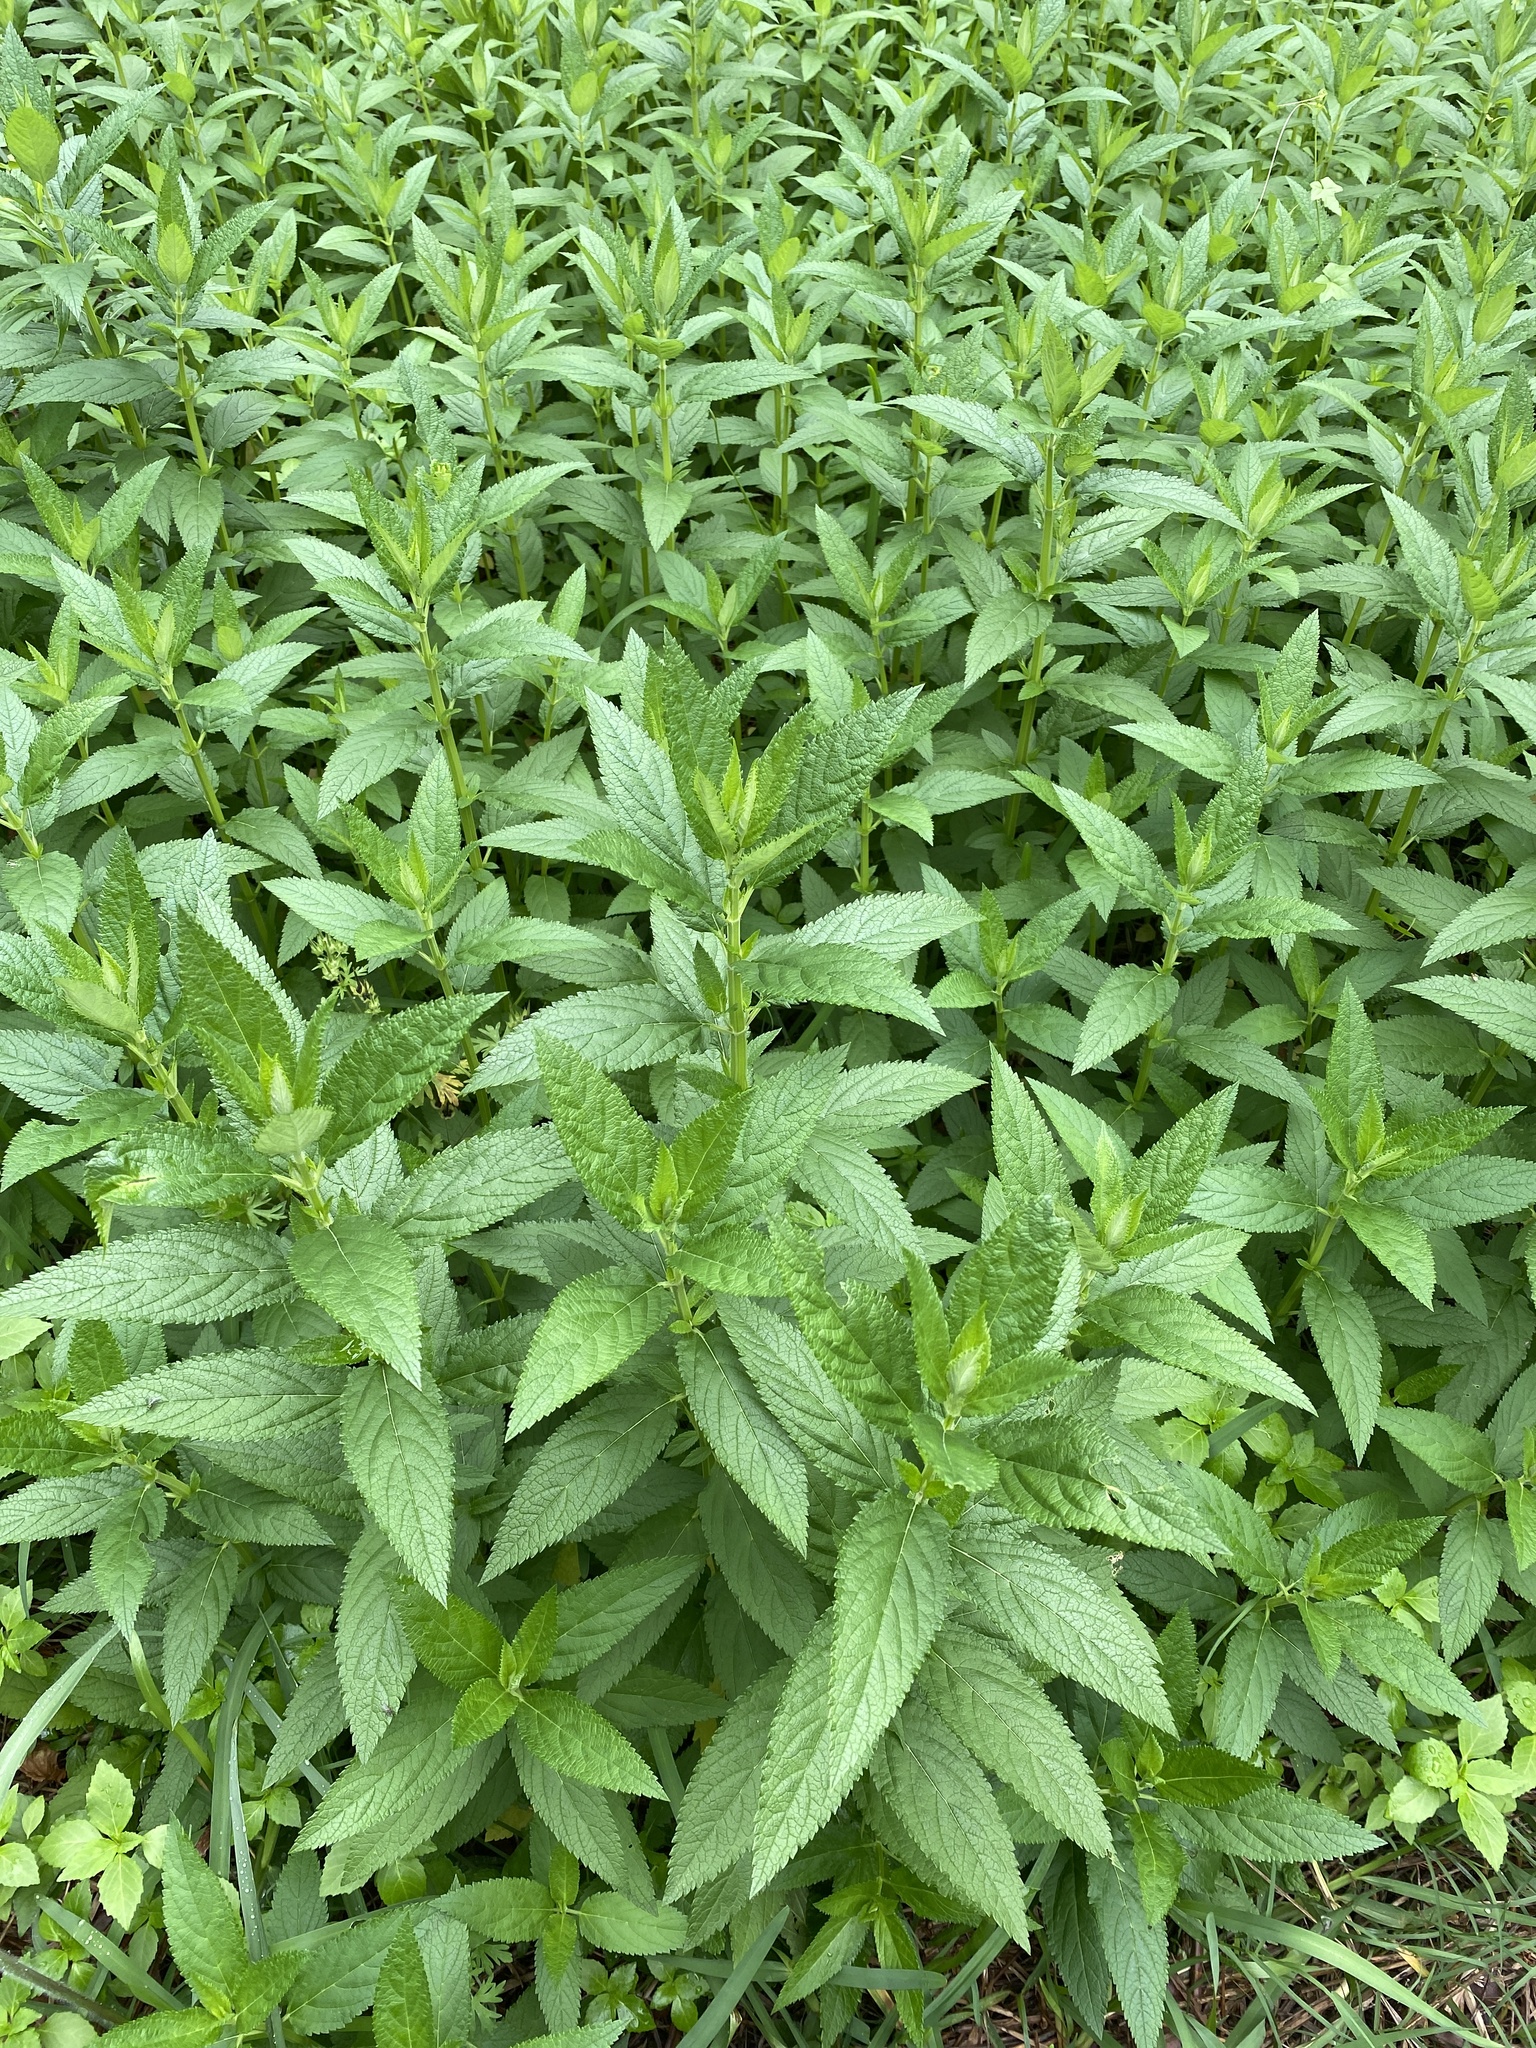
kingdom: Plantae
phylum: Tracheophyta
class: Magnoliopsida
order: Lamiales
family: Lamiaceae
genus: Teucrium
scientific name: Teucrium canadense
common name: American germander
